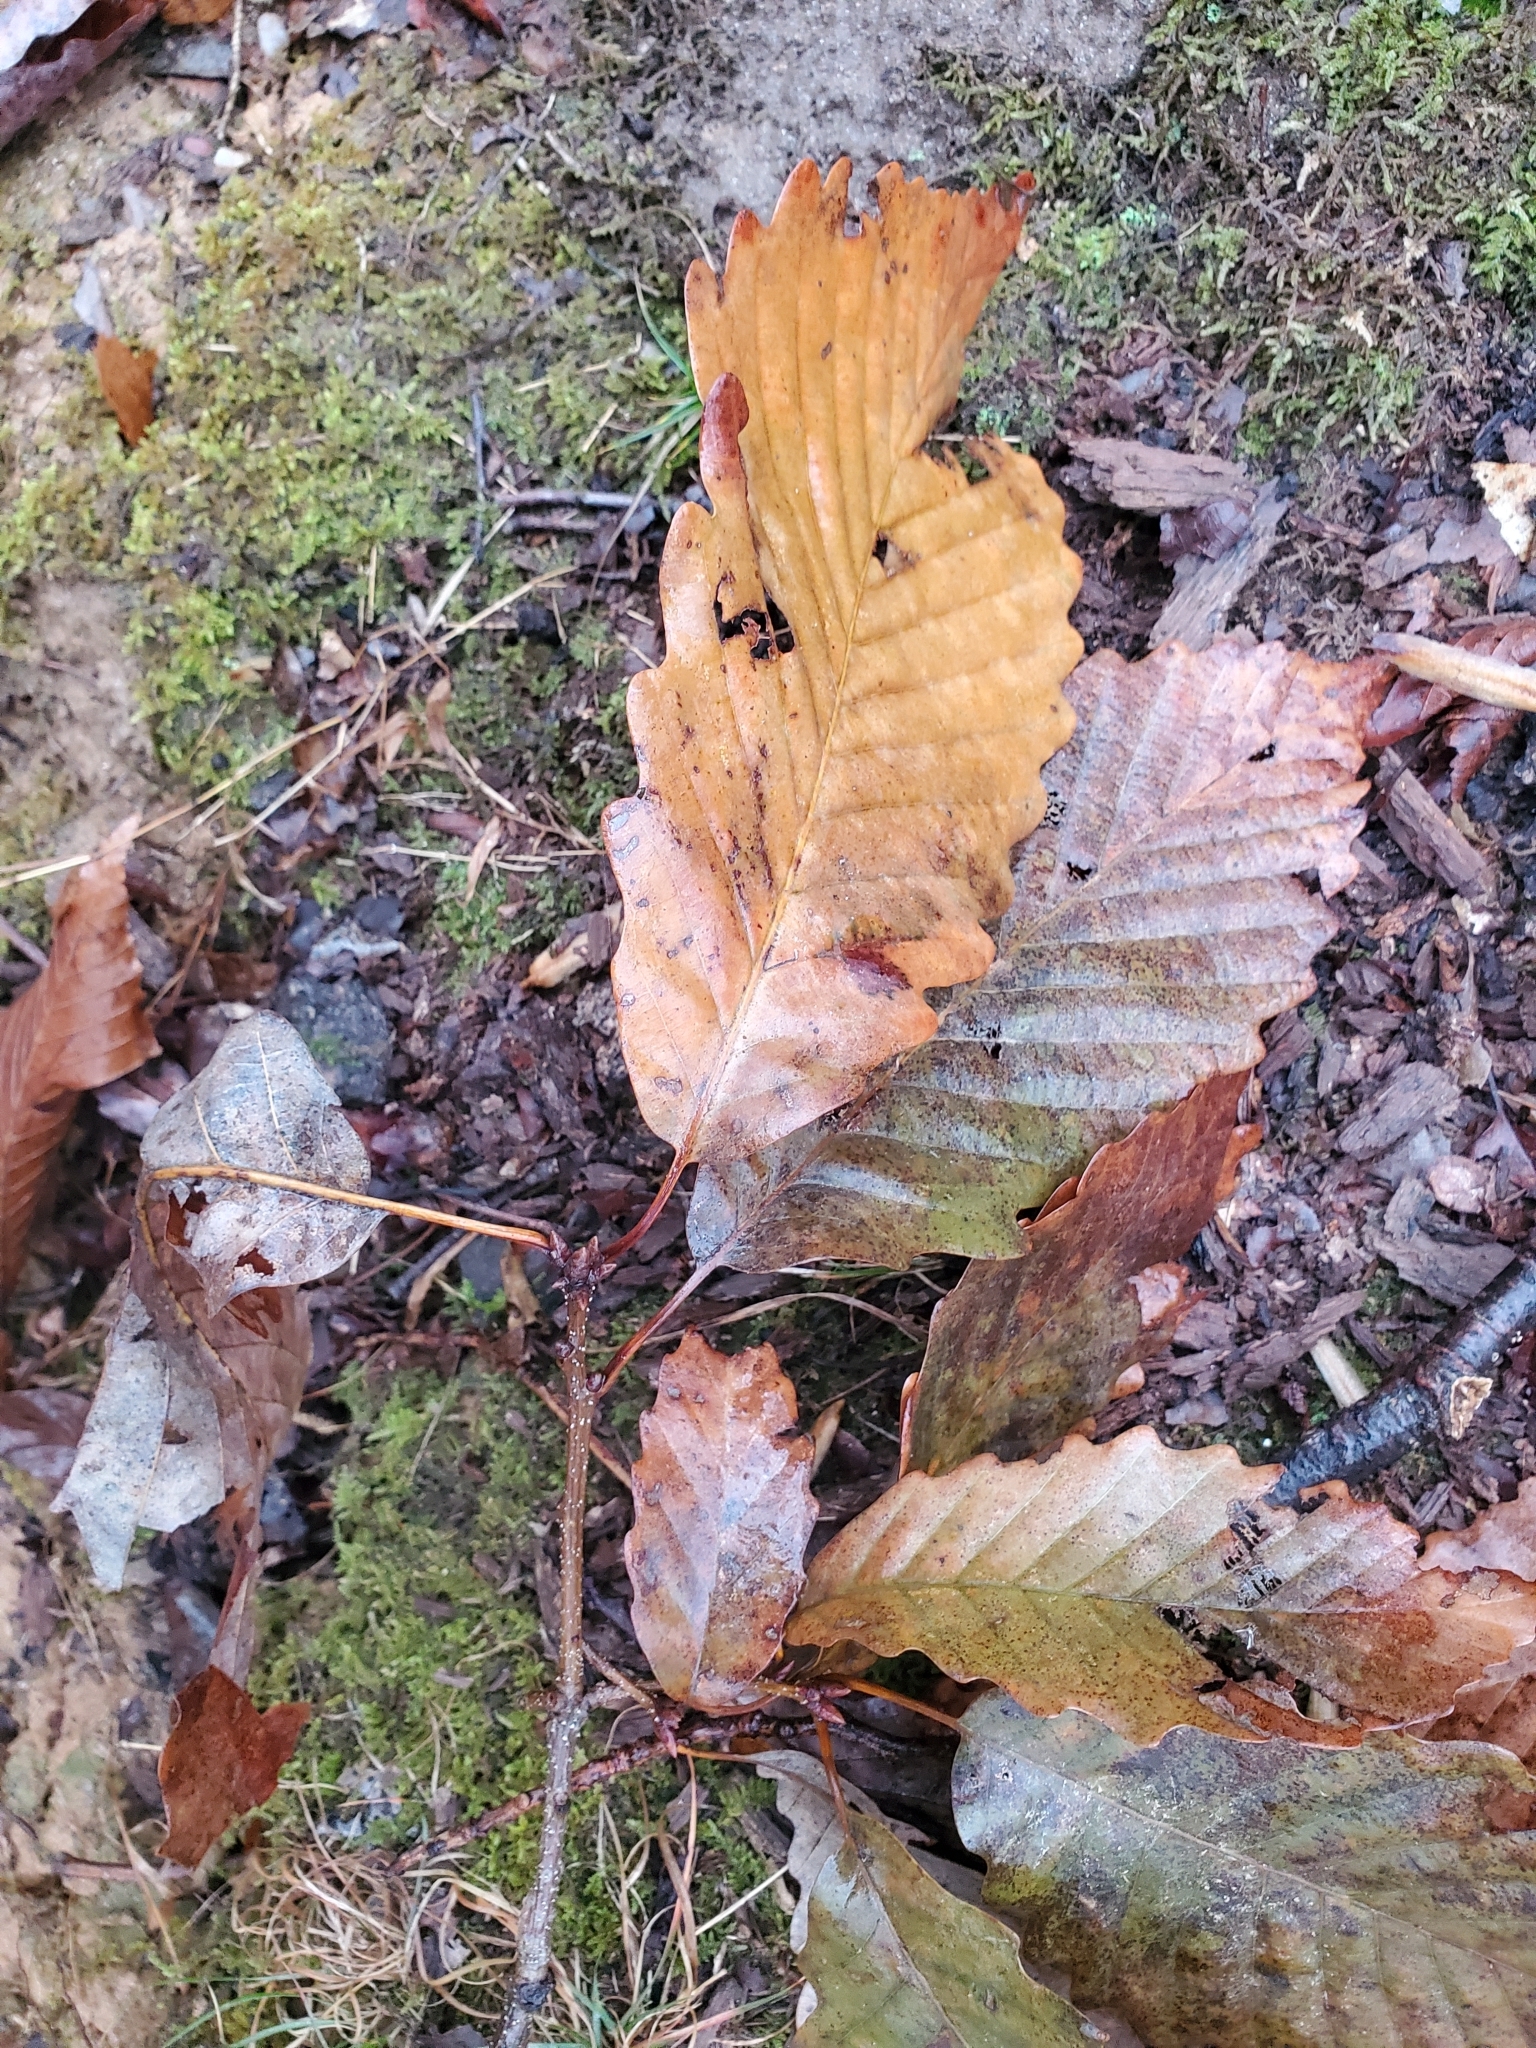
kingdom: Plantae
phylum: Tracheophyta
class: Magnoliopsida
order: Fagales
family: Fagaceae
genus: Quercus
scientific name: Quercus montana
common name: Chestnut oak
